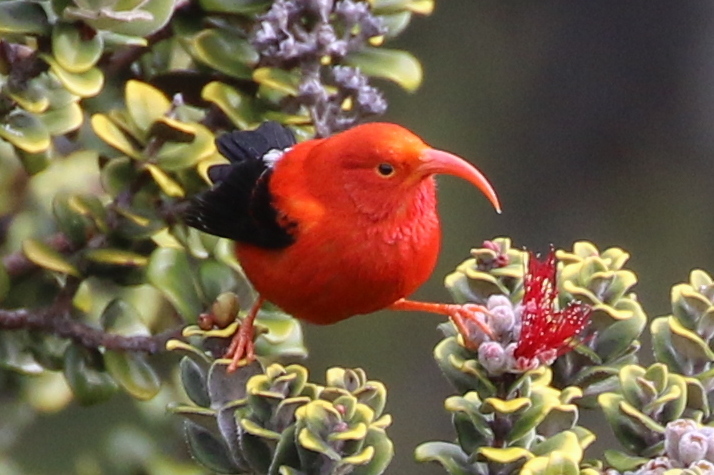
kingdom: Animalia
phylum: Chordata
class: Aves
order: Passeriformes
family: Fringillidae
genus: Vestiaria
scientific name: Vestiaria coccinea
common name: Iiwi
